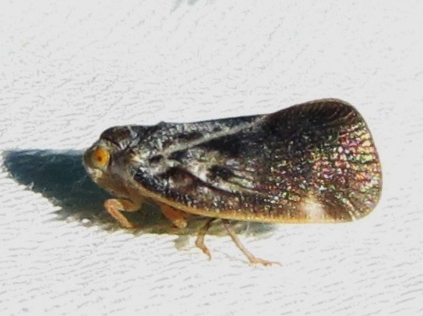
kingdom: Animalia
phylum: Arthropoda
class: Insecta
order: Hemiptera
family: Flatidae
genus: Metcalfa
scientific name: Metcalfa pruinosa
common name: Citrus flatid planthopper
